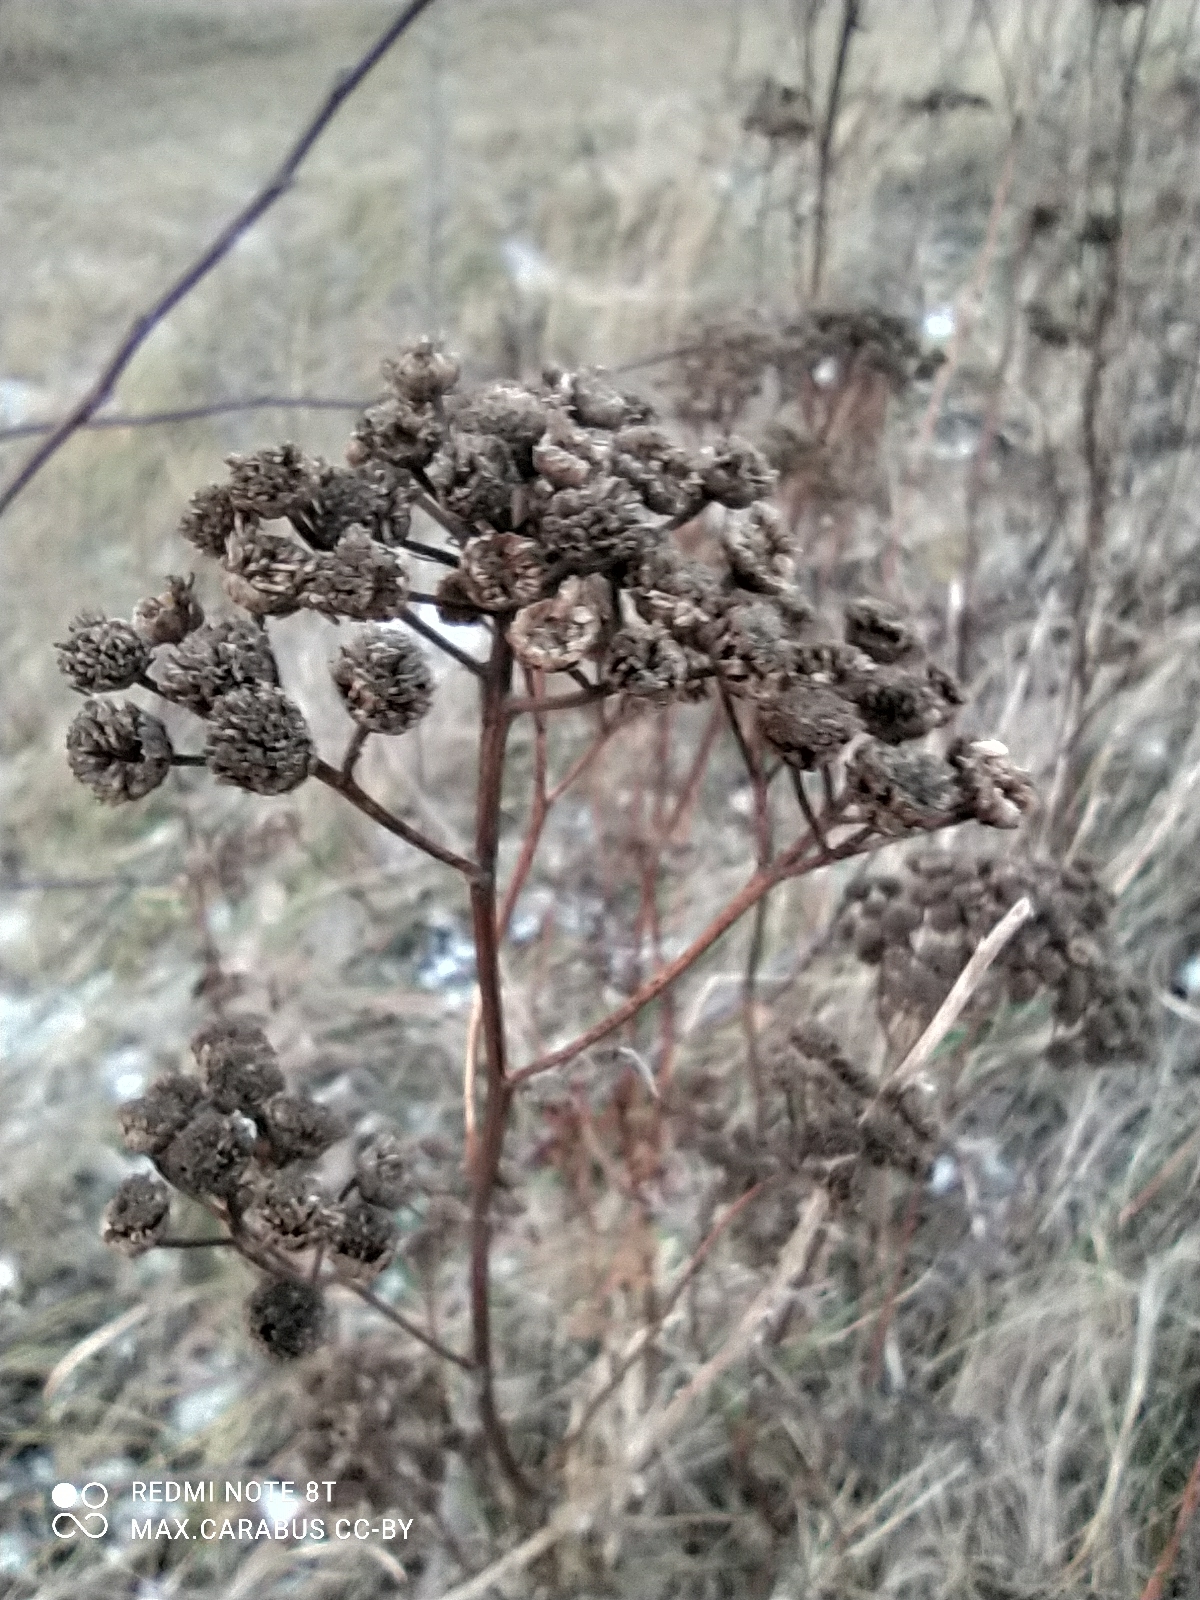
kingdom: Plantae
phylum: Tracheophyta
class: Magnoliopsida
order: Asterales
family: Asteraceae
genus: Tanacetum
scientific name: Tanacetum vulgare
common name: Common tansy
